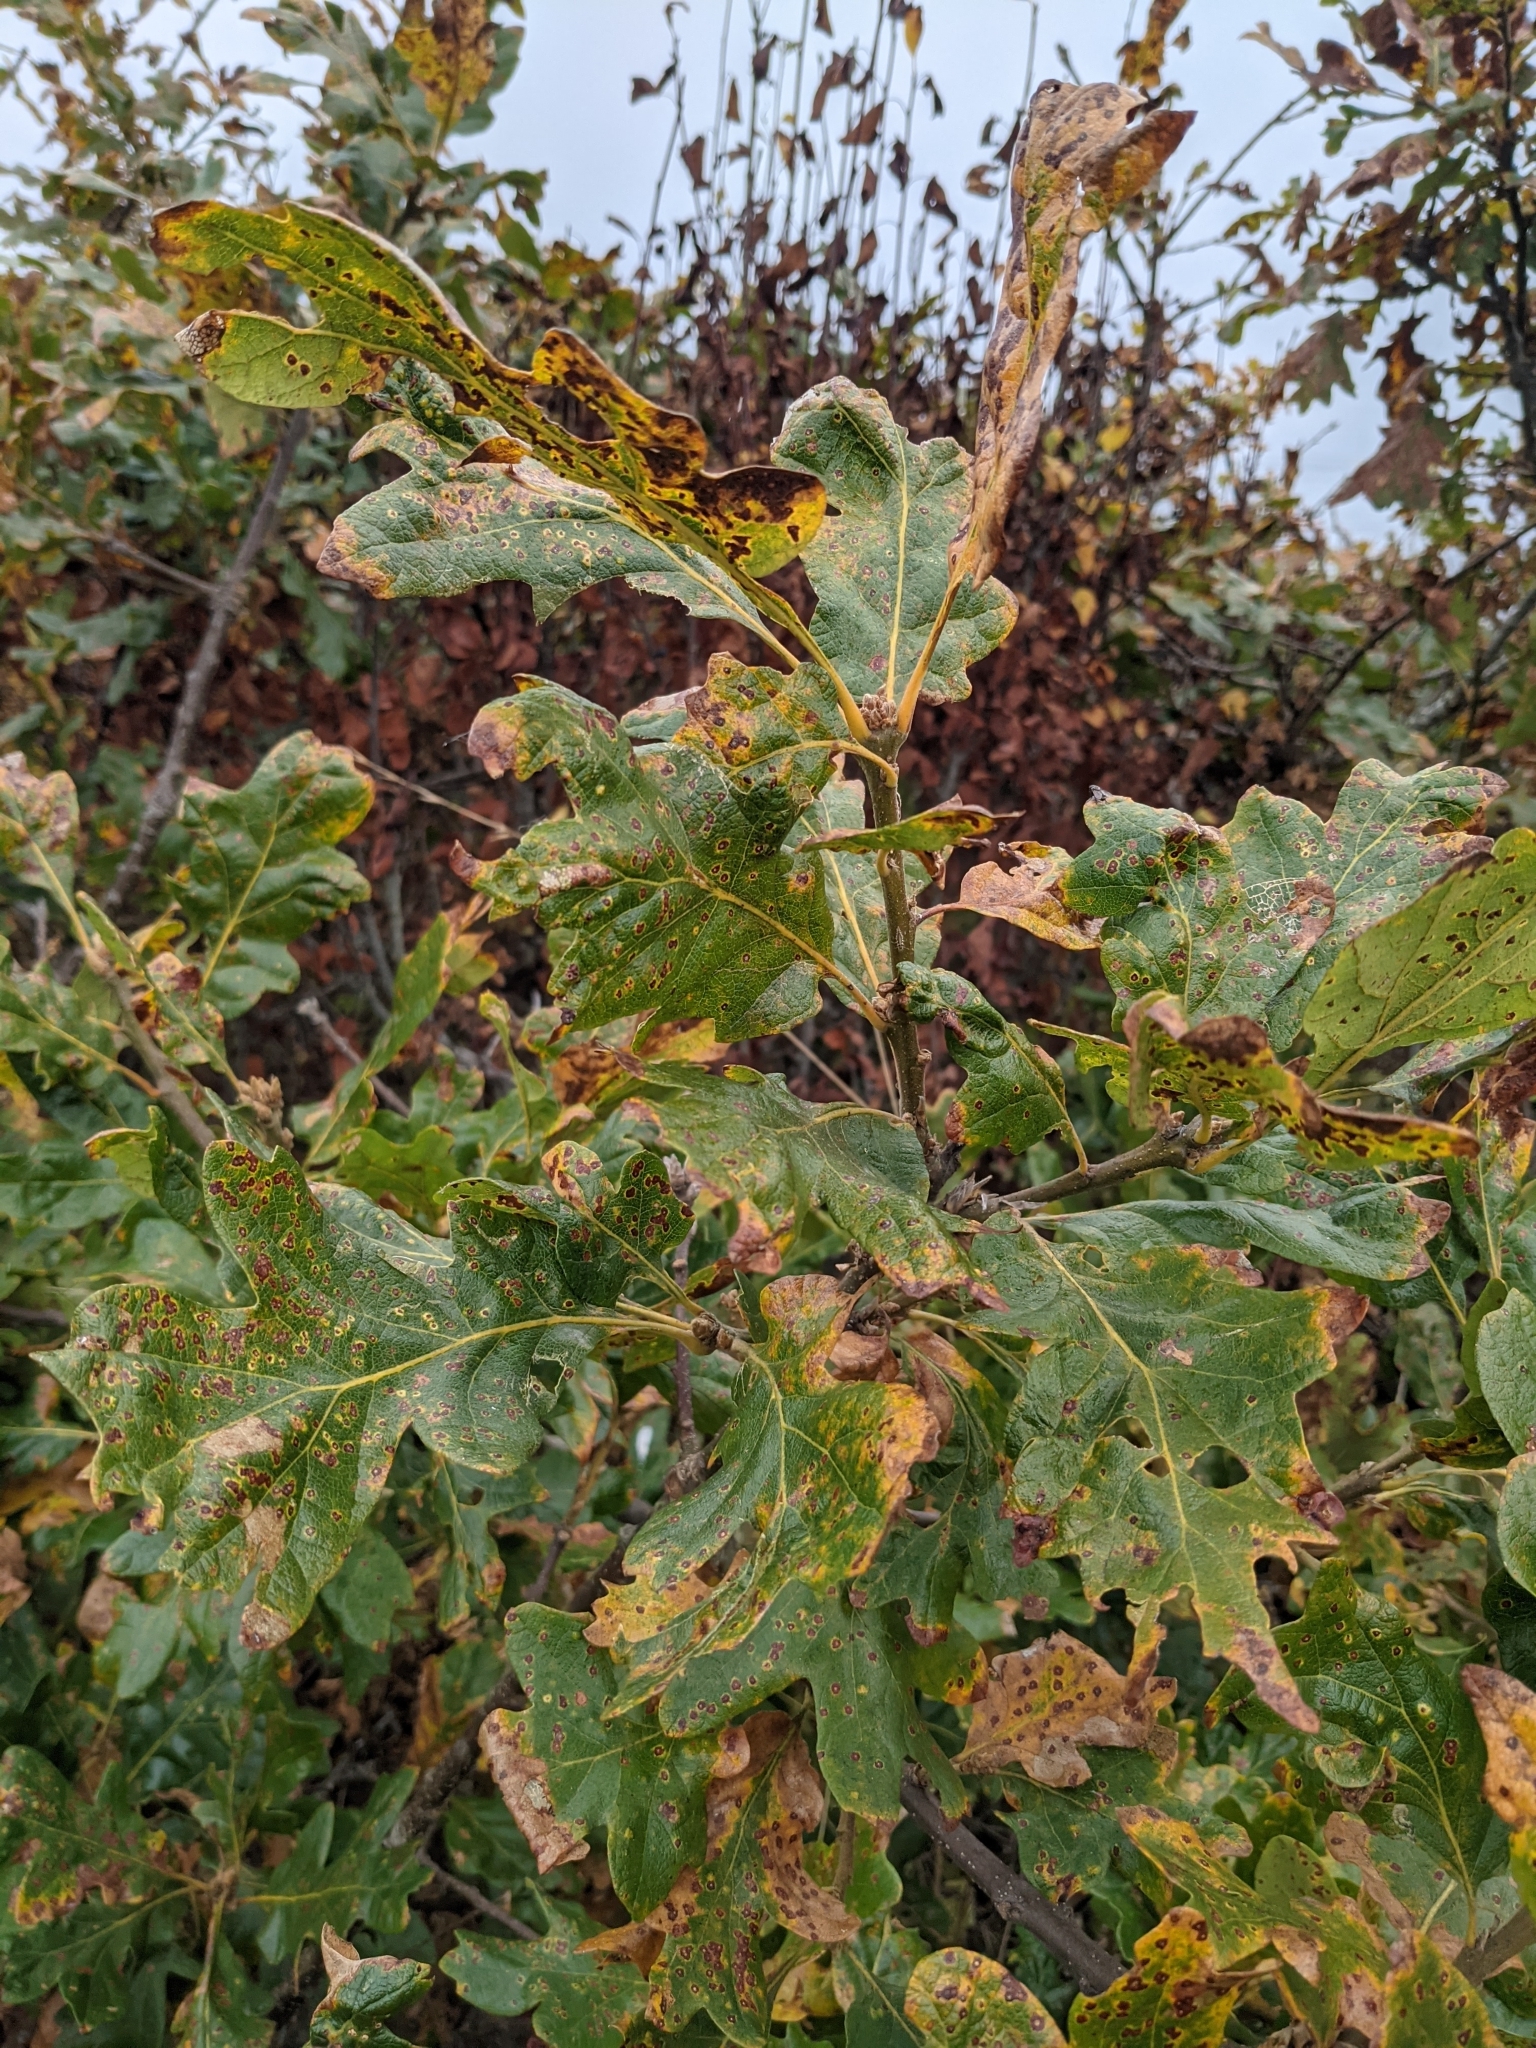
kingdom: Plantae
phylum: Tracheophyta
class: Magnoliopsida
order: Fagales
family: Fagaceae
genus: Quercus
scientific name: Quercus garryana
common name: Garry oak
